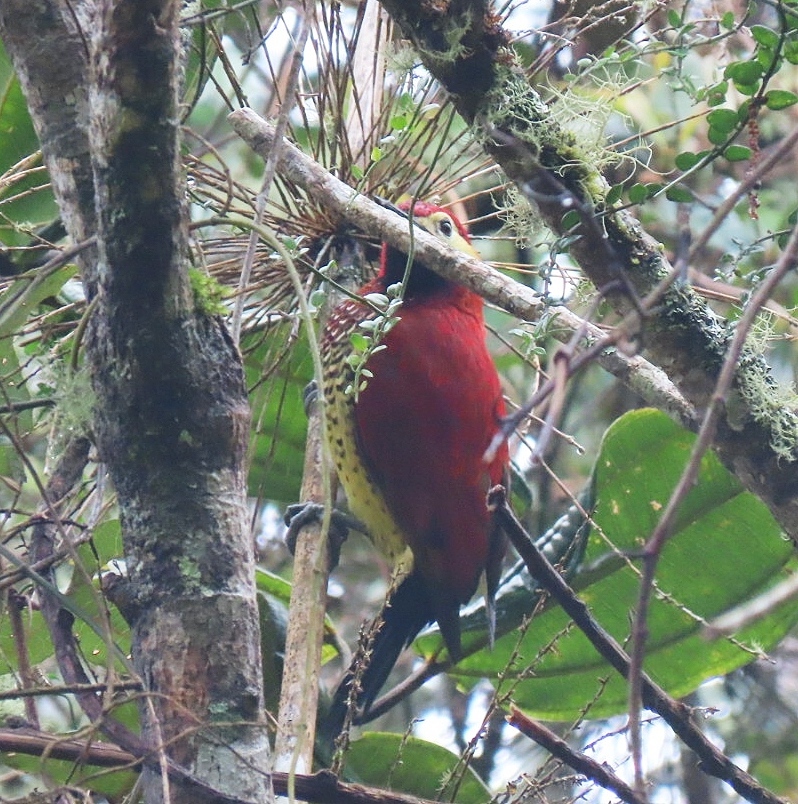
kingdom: Animalia
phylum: Chordata
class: Aves
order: Piciformes
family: Picidae
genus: Colaptes
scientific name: Colaptes rivolii
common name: Crimson-mantled woodpecker
